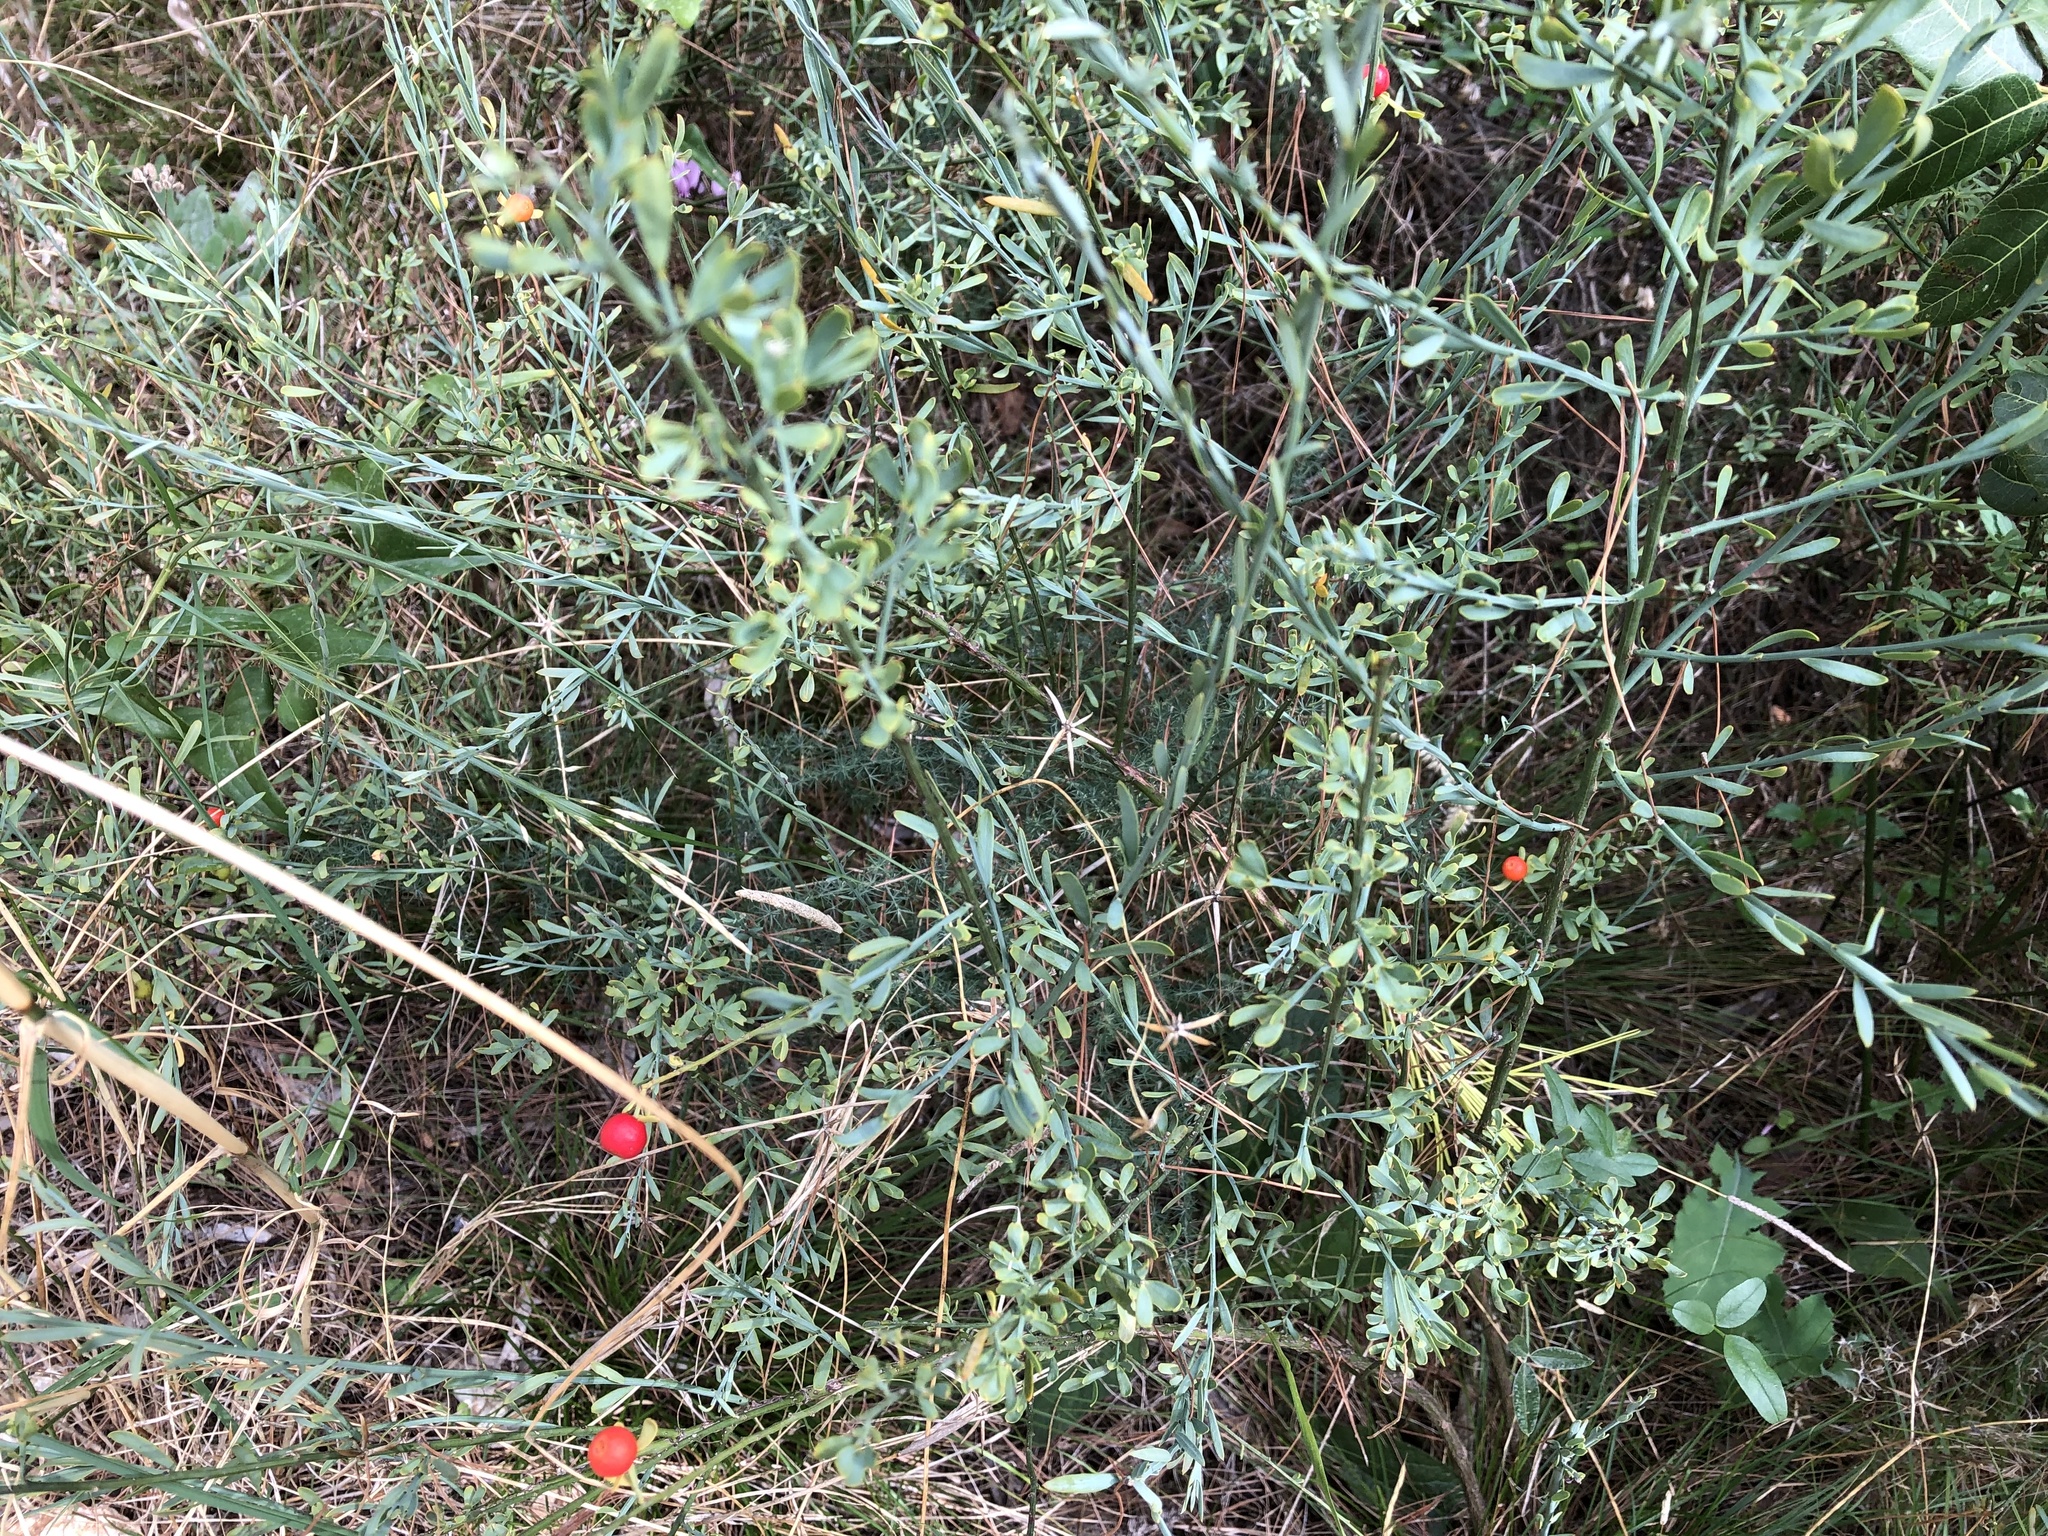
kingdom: Plantae
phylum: Tracheophyta
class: Magnoliopsida
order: Santalales
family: Santalaceae
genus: Osyris
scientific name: Osyris alba
